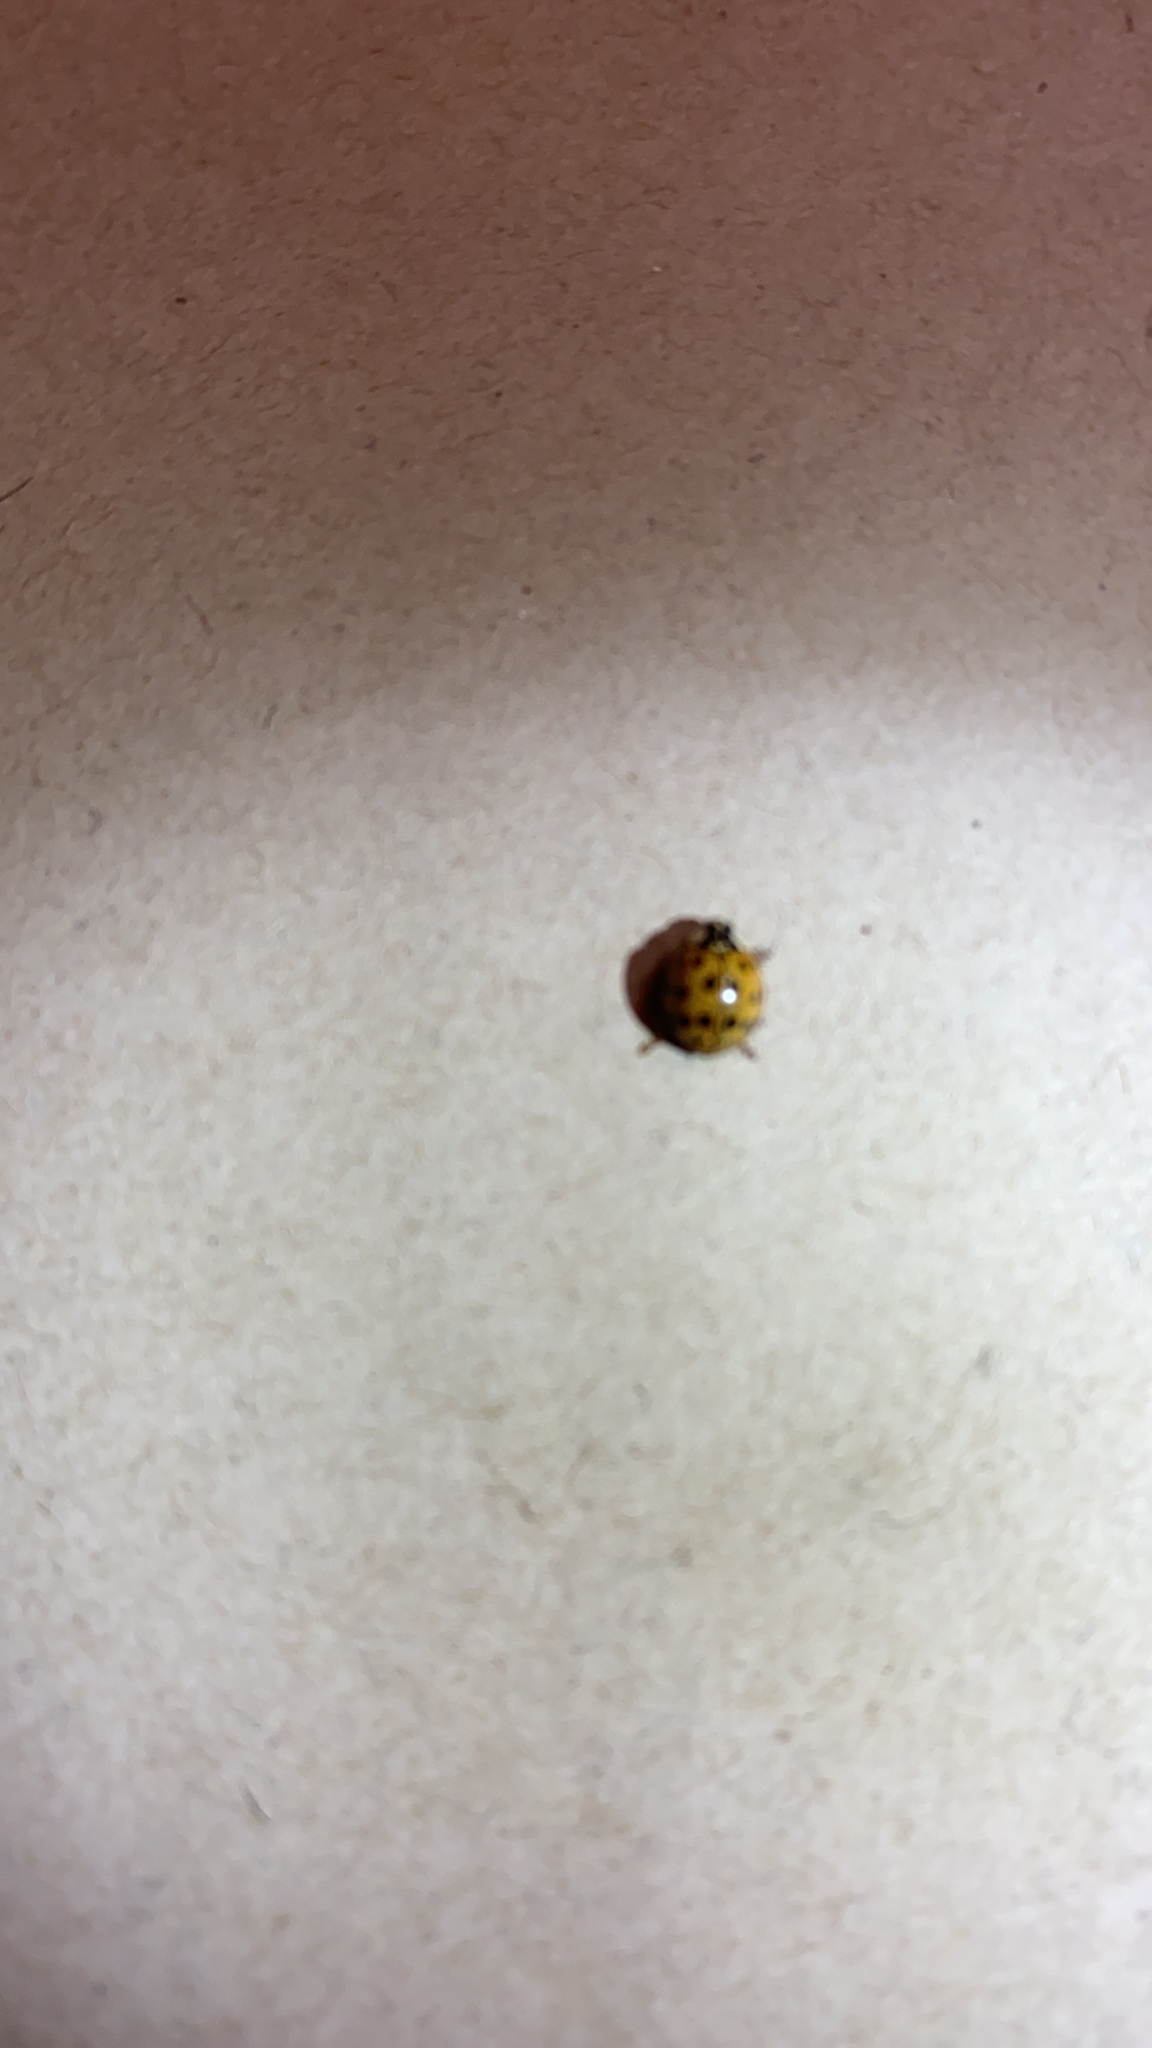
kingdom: Animalia
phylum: Arthropoda
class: Insecta
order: Coleoptera
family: Coccinellidae
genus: Harmonia
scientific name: Harmonia axyridis
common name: Harlequin ladybird
